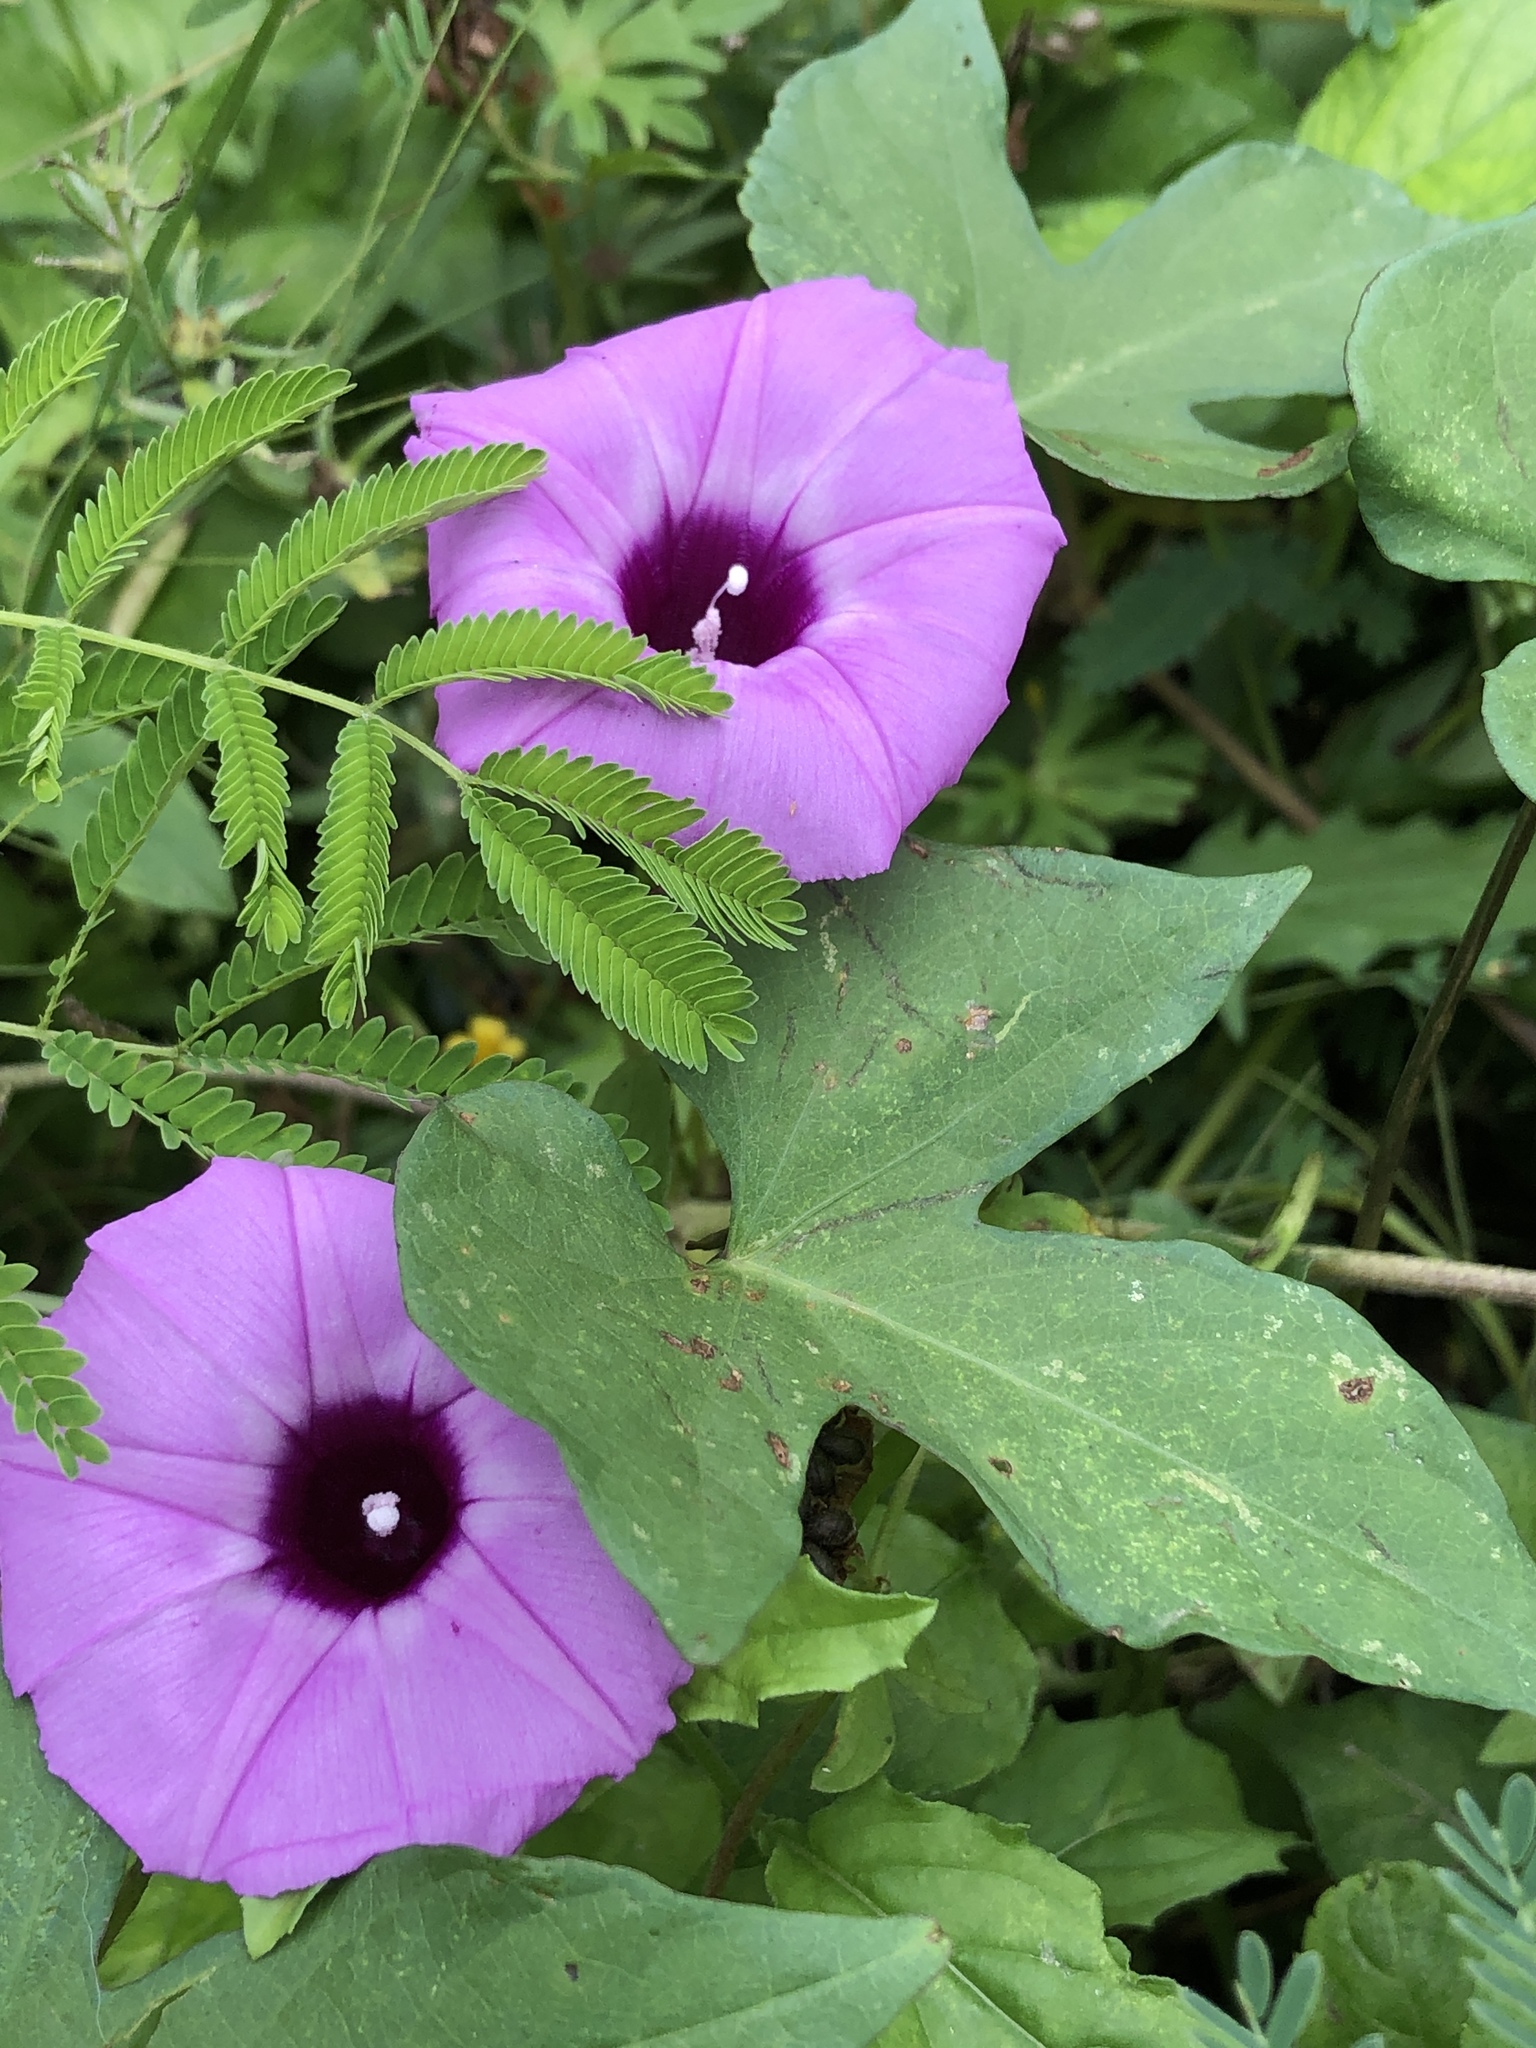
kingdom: Plantae
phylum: Tracheophyta
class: Magnoliopsida
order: Solanales
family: Convolvulaceae
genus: Ipomoea
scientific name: Ipomoea cordatotriloba
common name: Cotton morning glory
